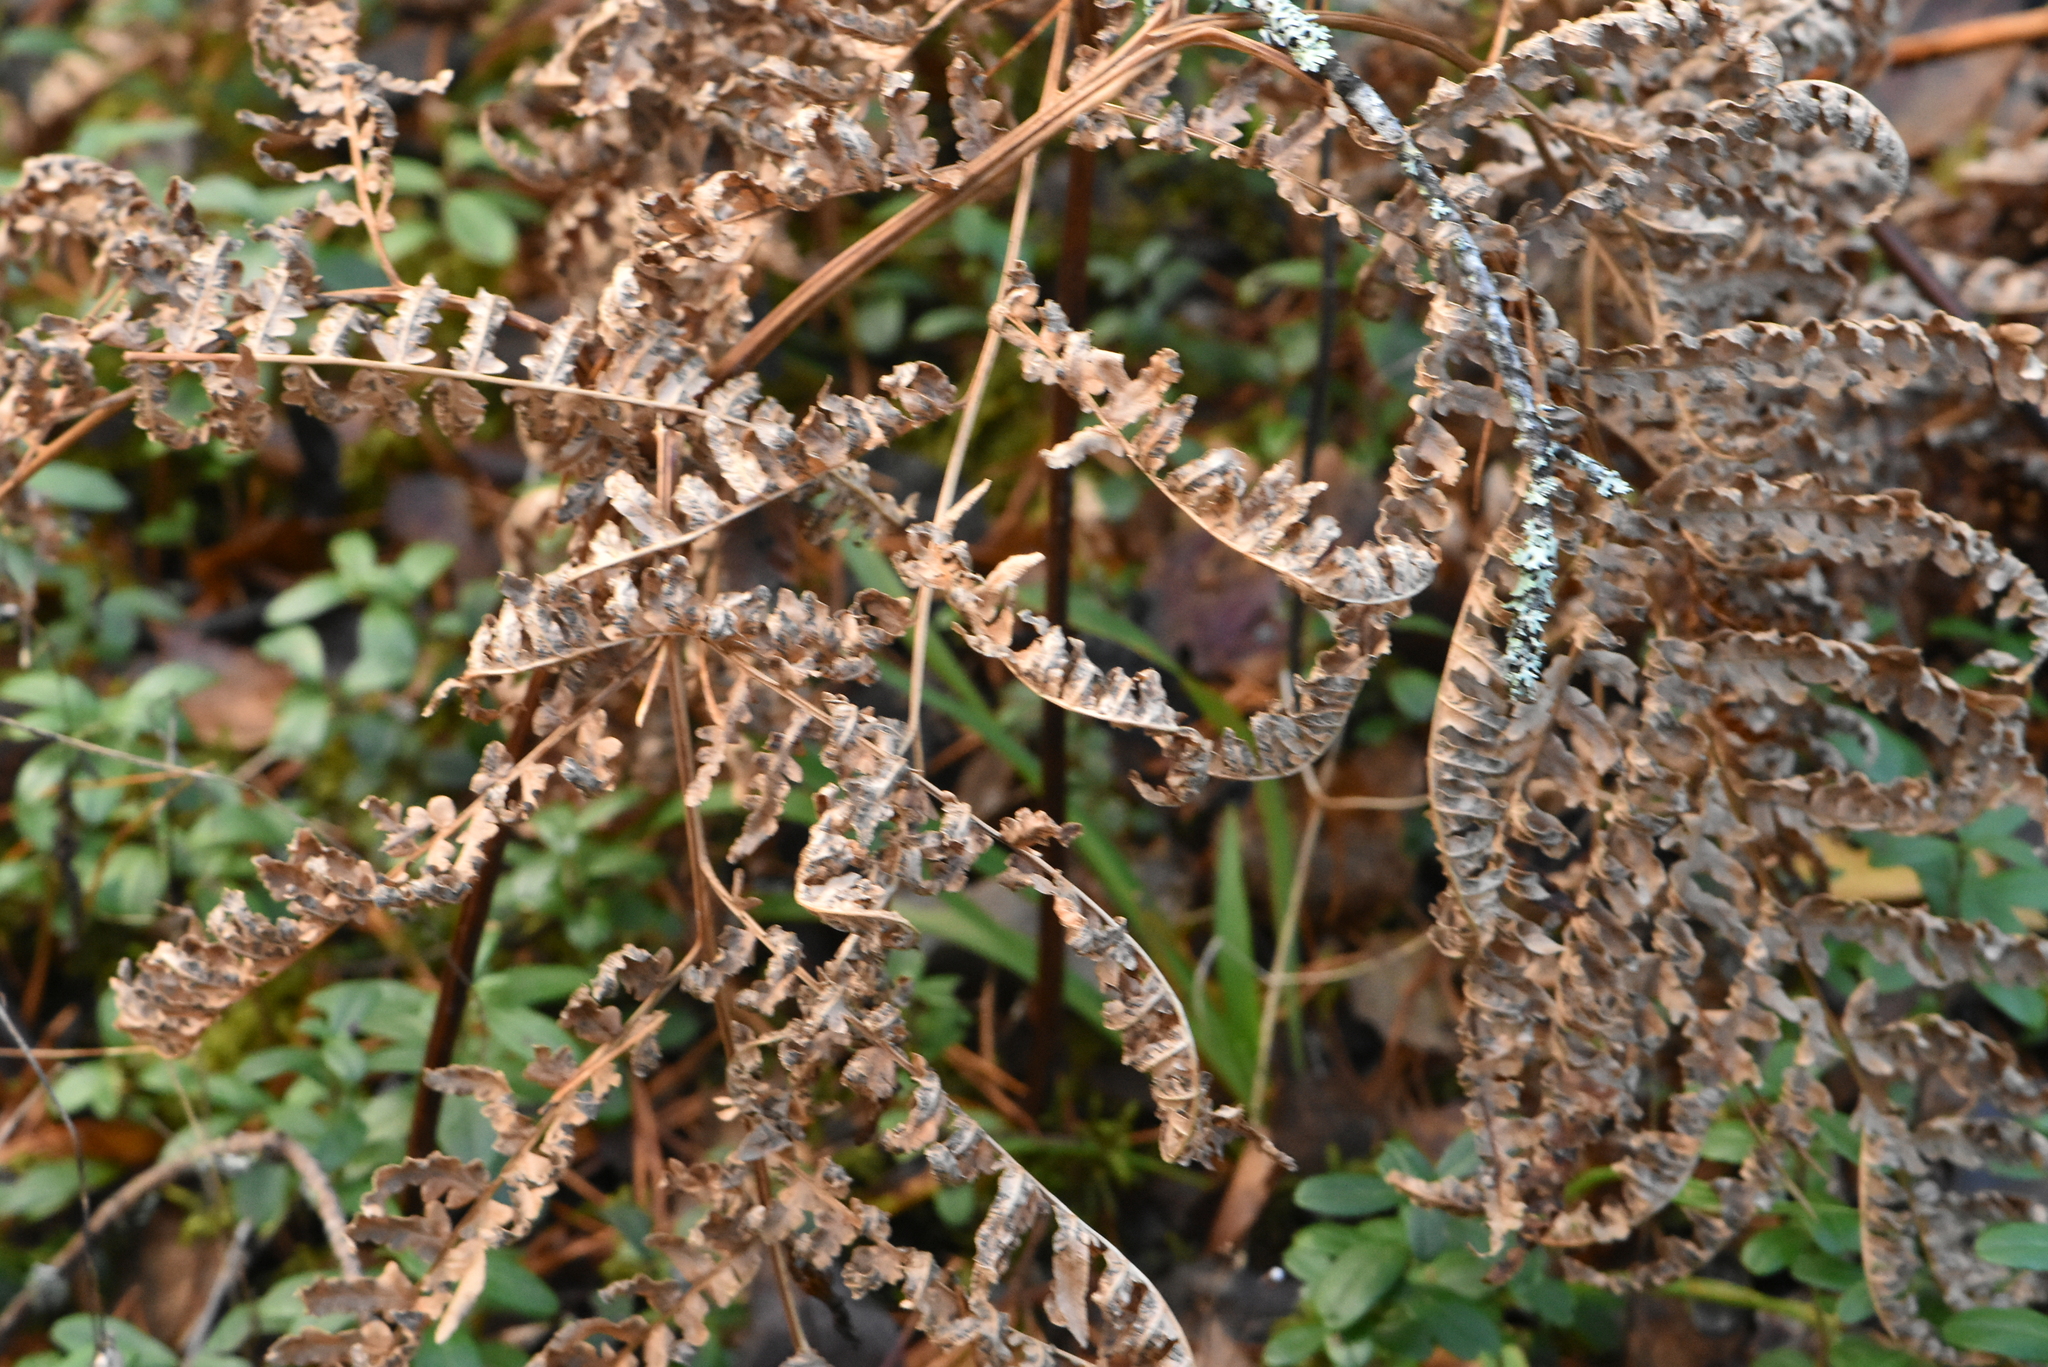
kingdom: Plantae
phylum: Tracheophyta
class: Polypodiopsida
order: Polypodiales
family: Dennstaedtiaceae
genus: Pteridium
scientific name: Pteridium aquilinum
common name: Bracken
